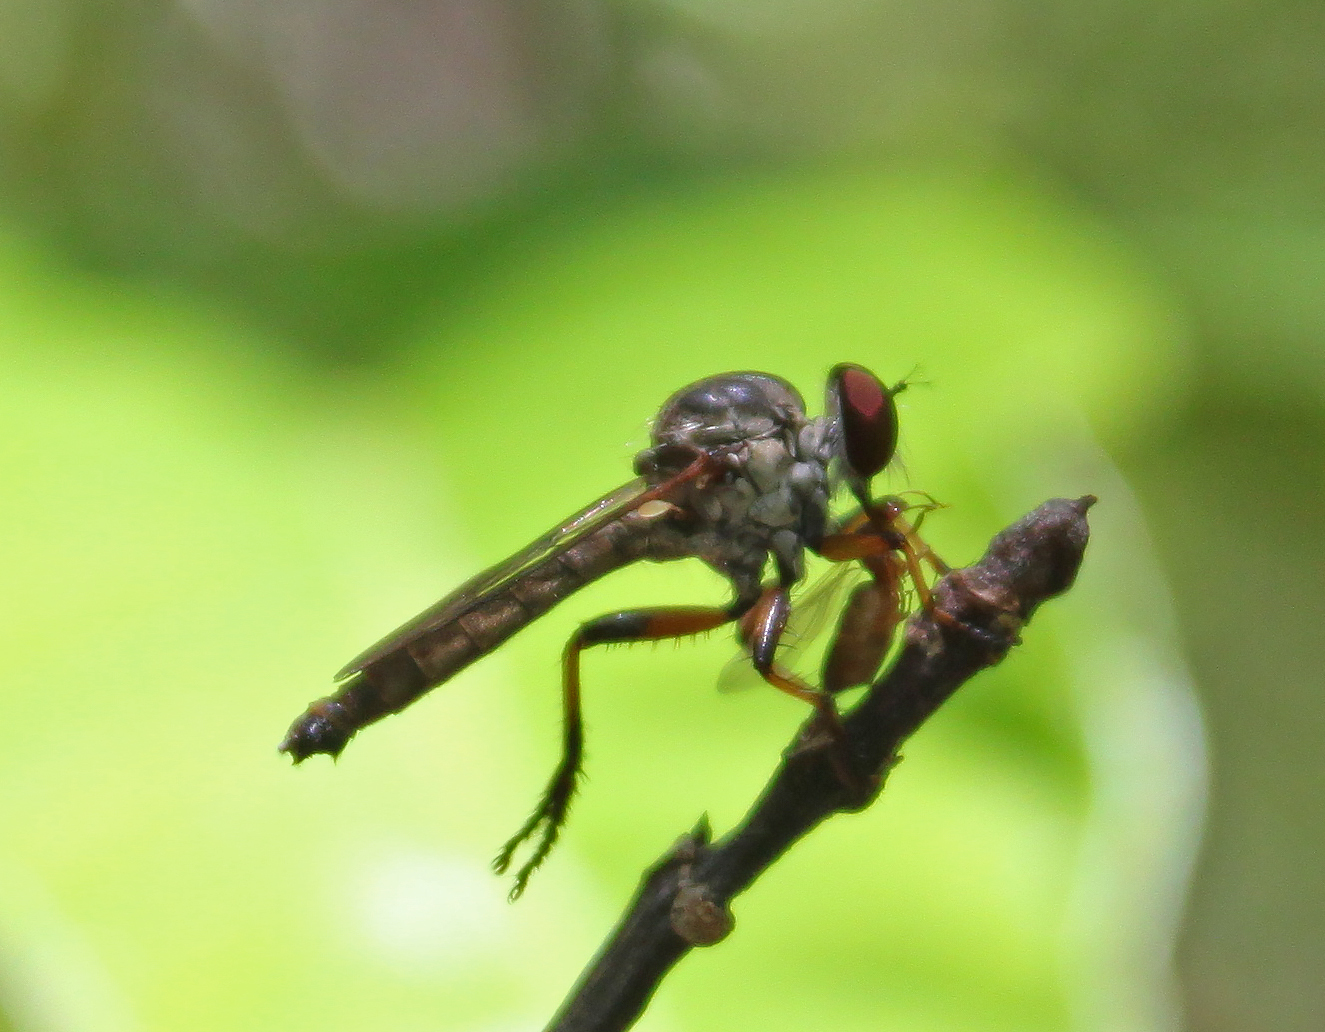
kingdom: Animalia
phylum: Arthropoda
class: Insecta
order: Diptera
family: Asilidae
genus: Ommatius
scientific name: Ommatius floridensis
